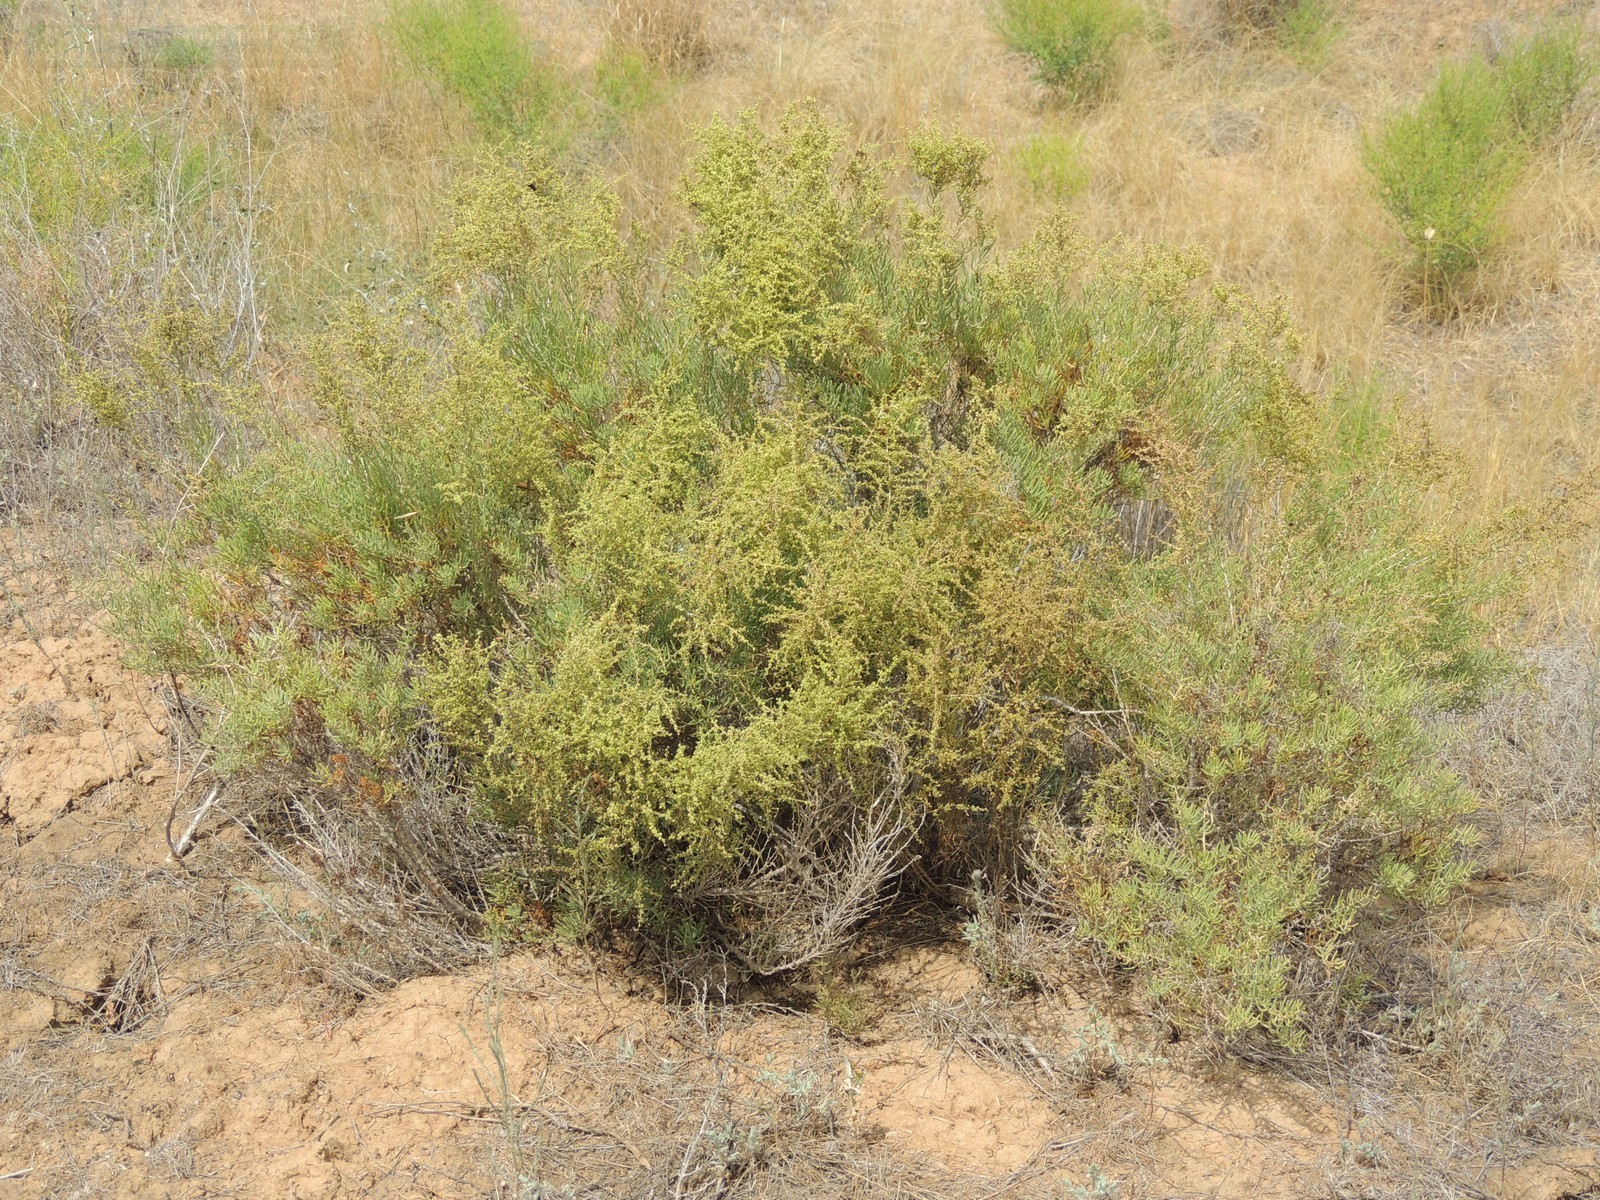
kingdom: Plantae
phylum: Tracheophyta
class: Magnoliopsida
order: Caryophyllales
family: Amaranthaceae
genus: Suaeda
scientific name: Suaeda physophora
